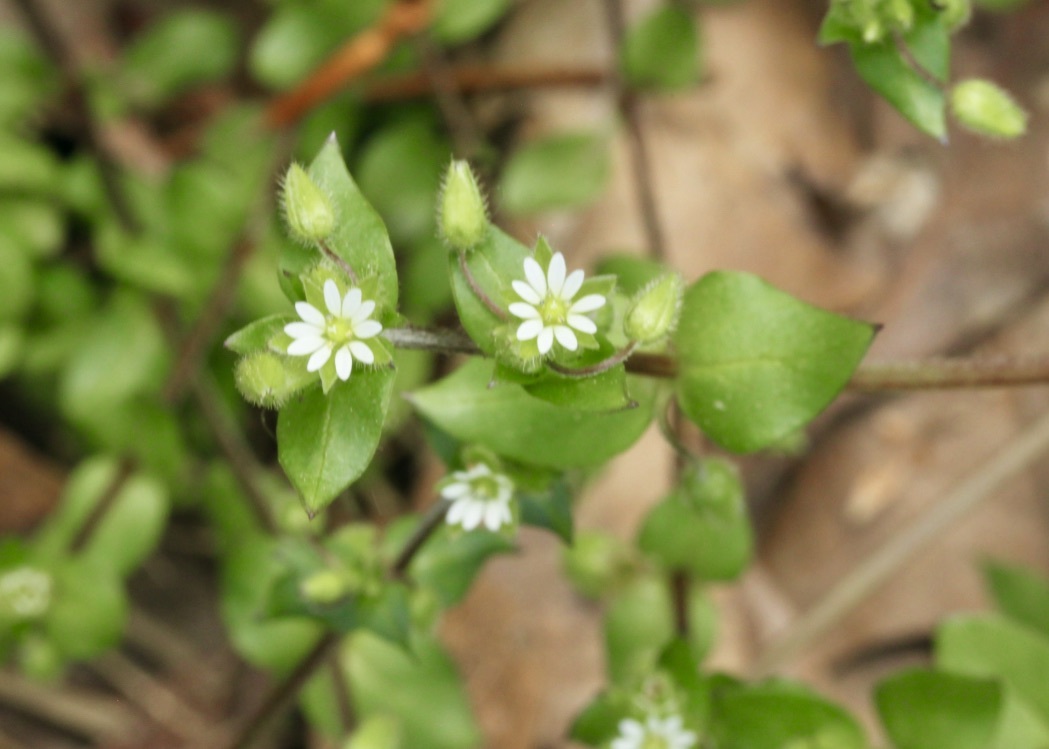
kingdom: Plantae
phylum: Tracheophyta
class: Magnoliopsida
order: Caryophyllales
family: Caryophyllaceae
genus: Stellaria
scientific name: Stellaria media
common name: Common chickweed
